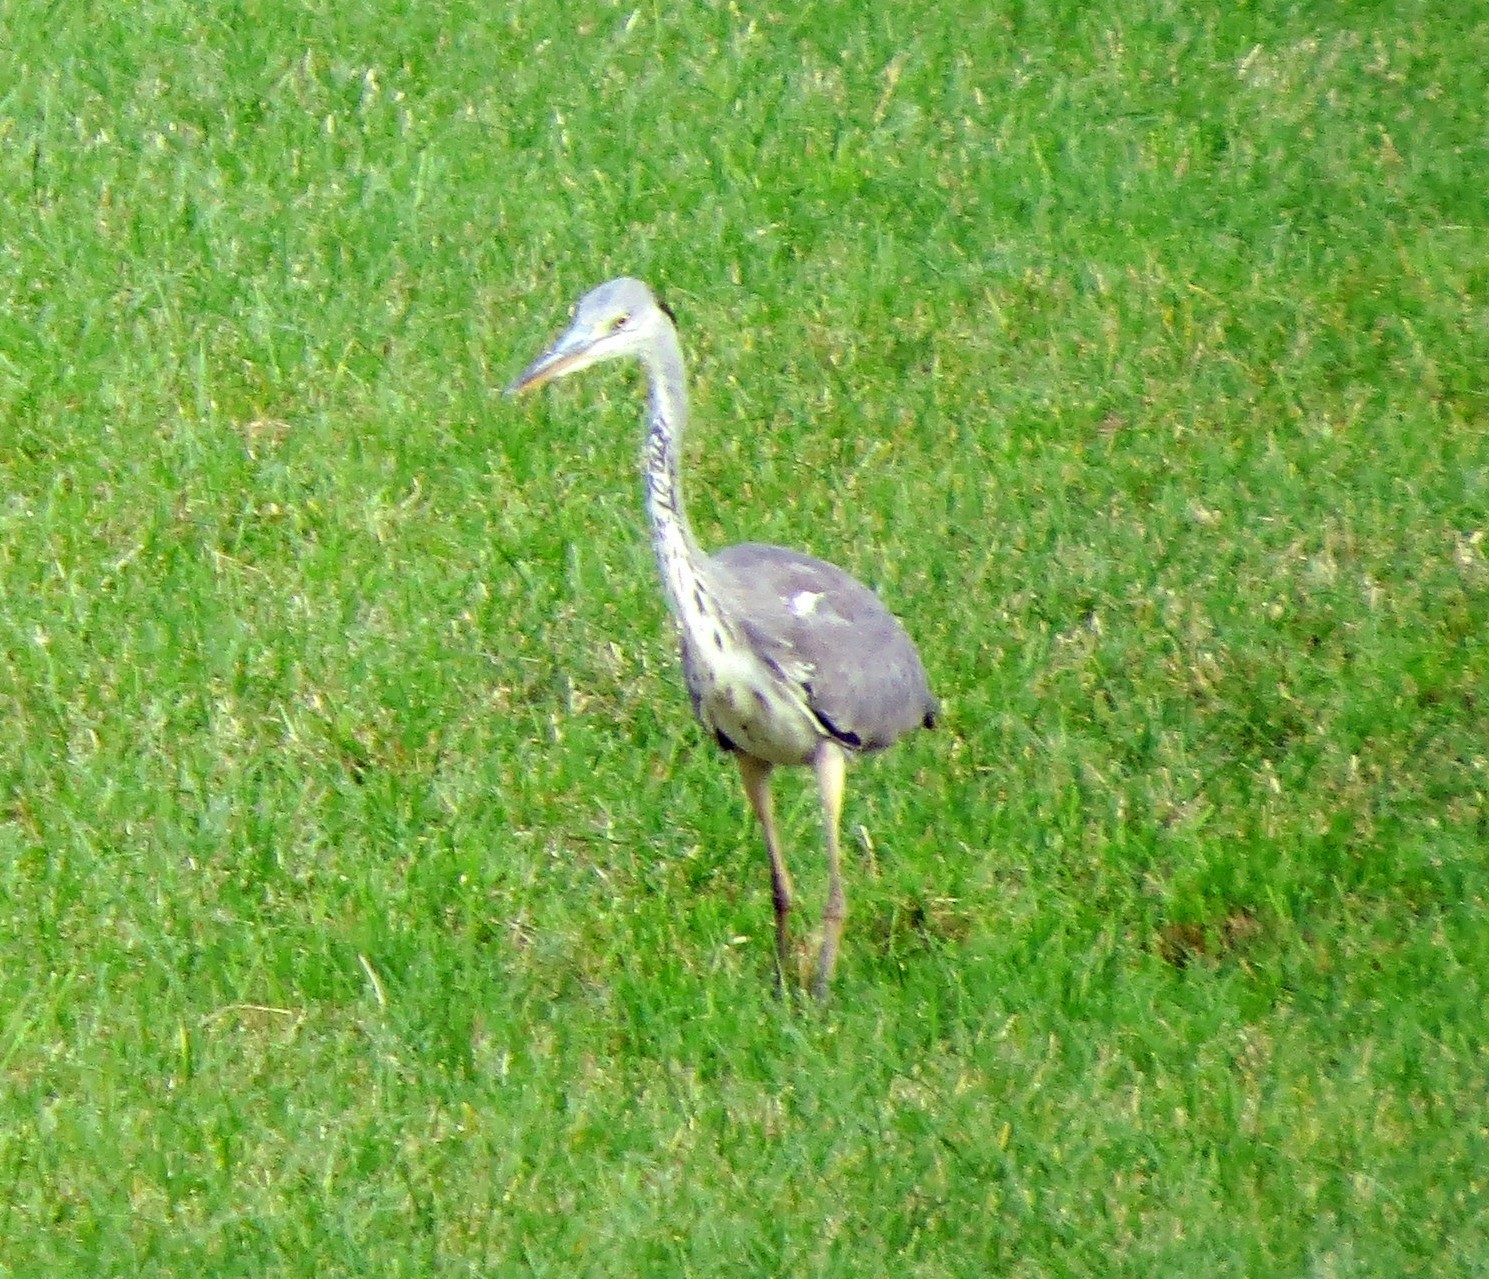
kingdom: Animalia
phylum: Chordata
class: Aves
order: Pelecaniformes
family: Ardeidae
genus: Ardea
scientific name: Ardea cinerea
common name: Grey heron
